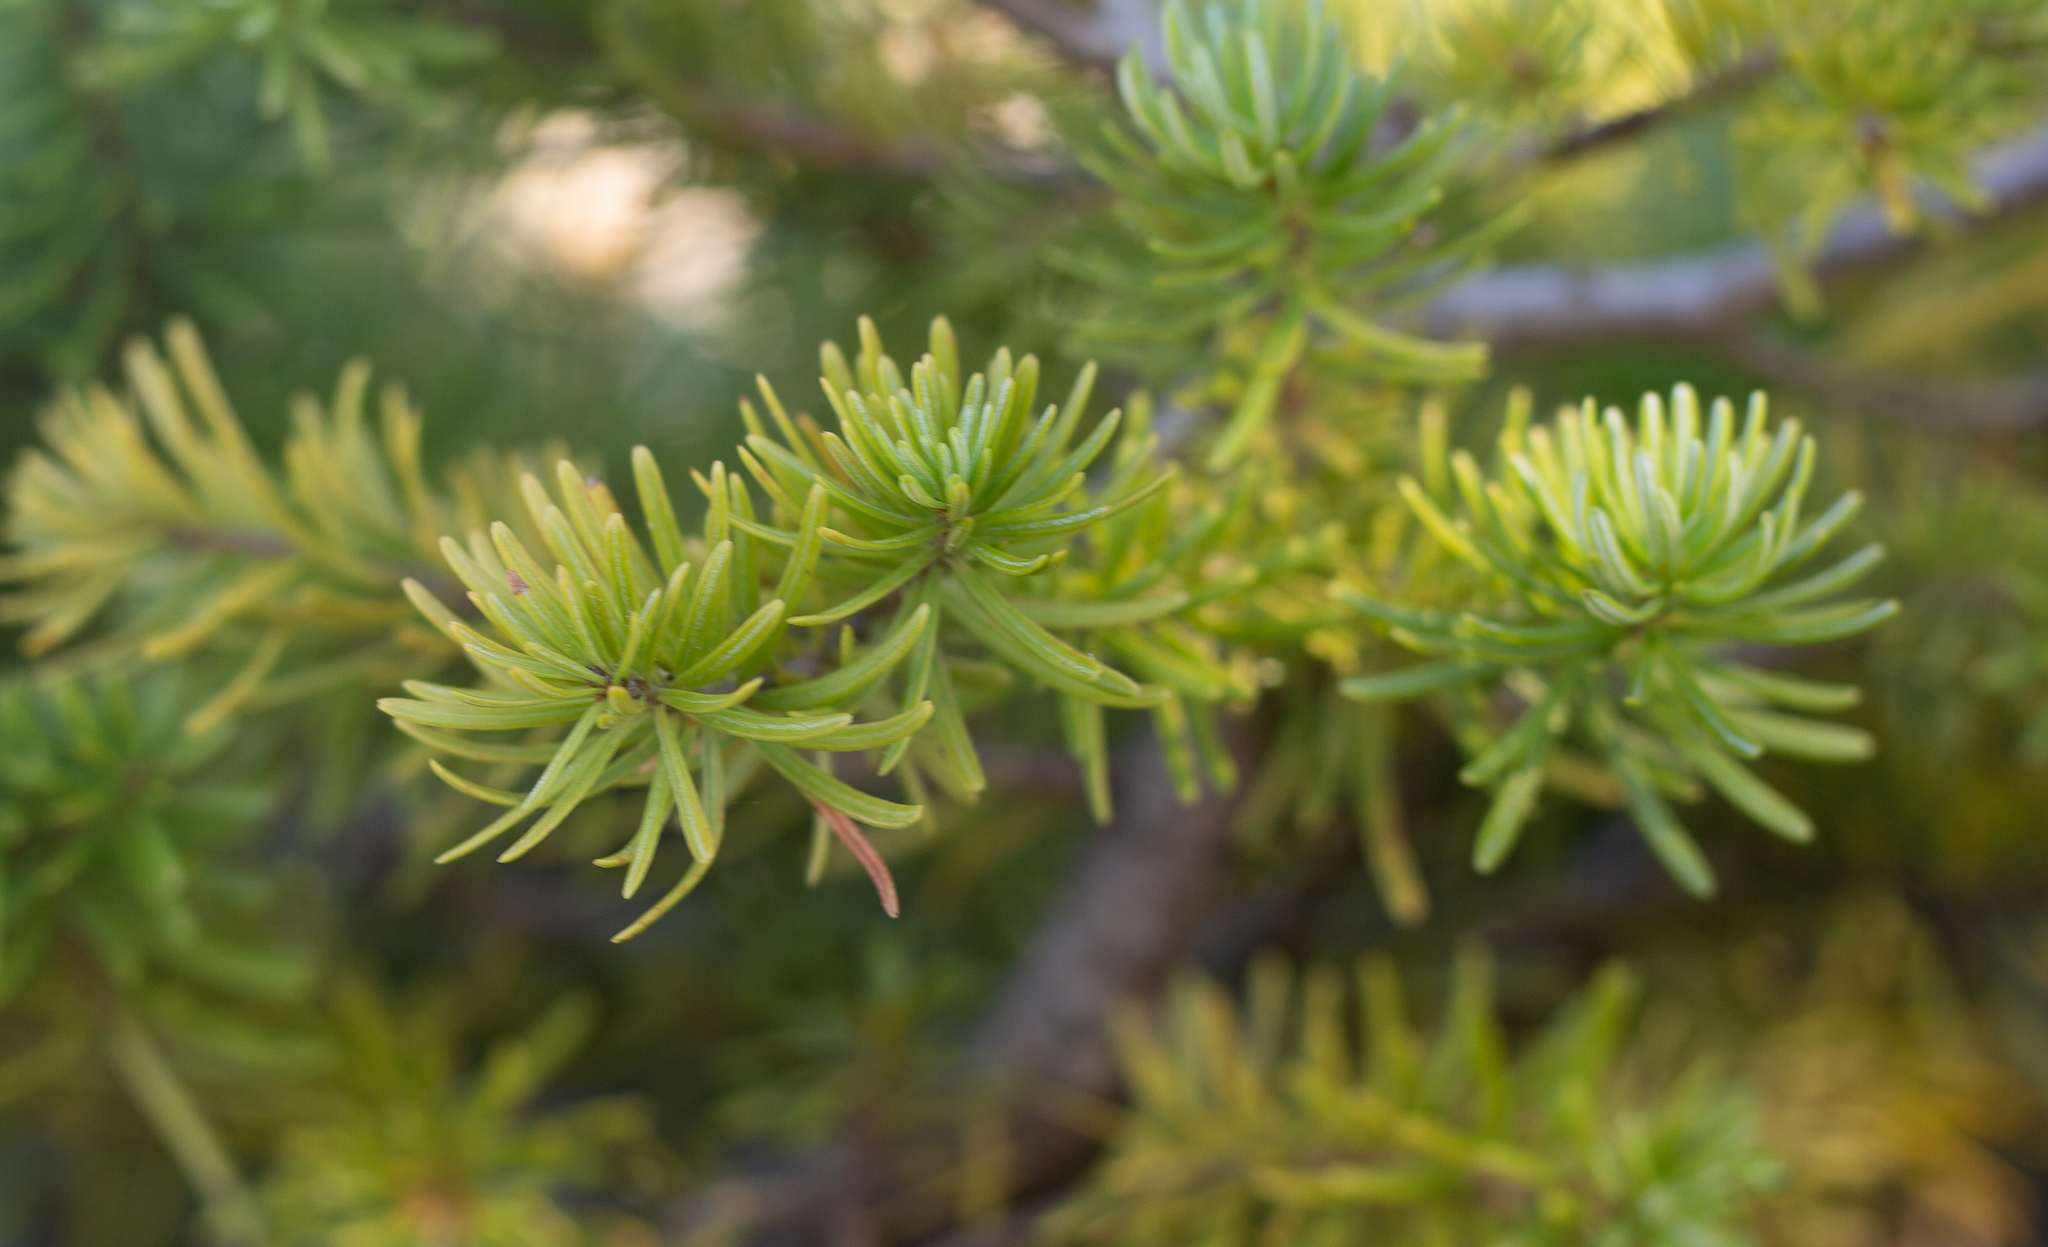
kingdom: Plantae
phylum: Tracheophyta
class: Pinopsida
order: Pinales
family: Pinaceae
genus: Abies
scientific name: Abies lasiocarpa
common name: Subalpine fir
